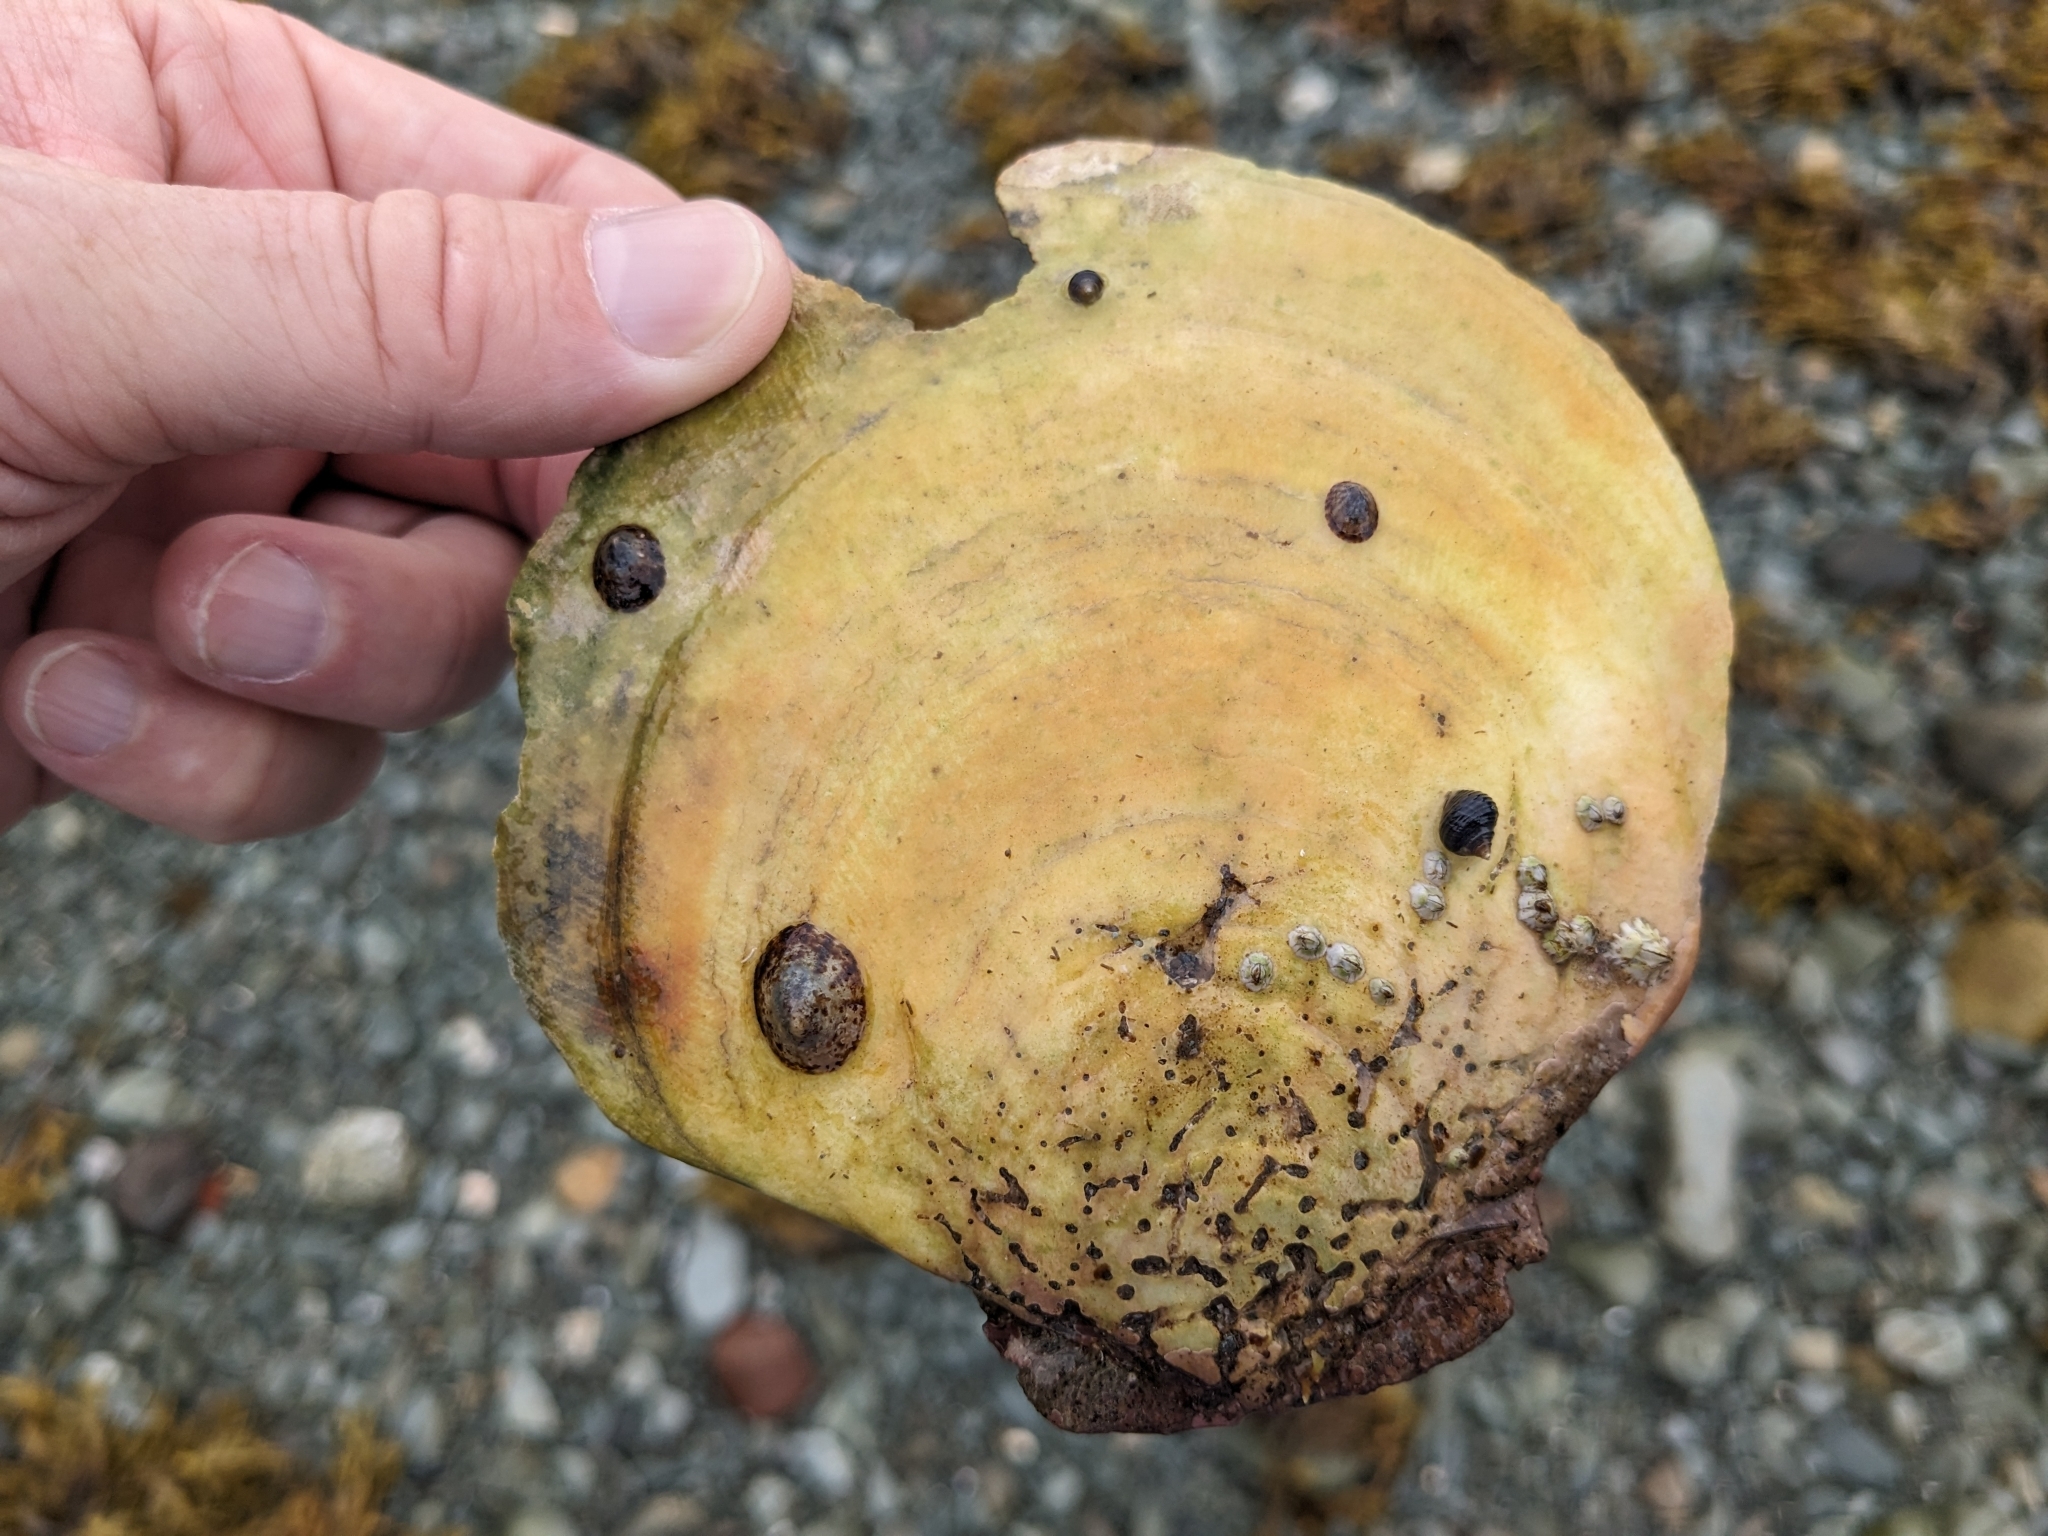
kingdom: Animalia
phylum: Mollusca
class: Bivalvia
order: Pectinida
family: Pectinidae
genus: Placopecten
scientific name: Placopecten magellanicus
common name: American sea scallop
